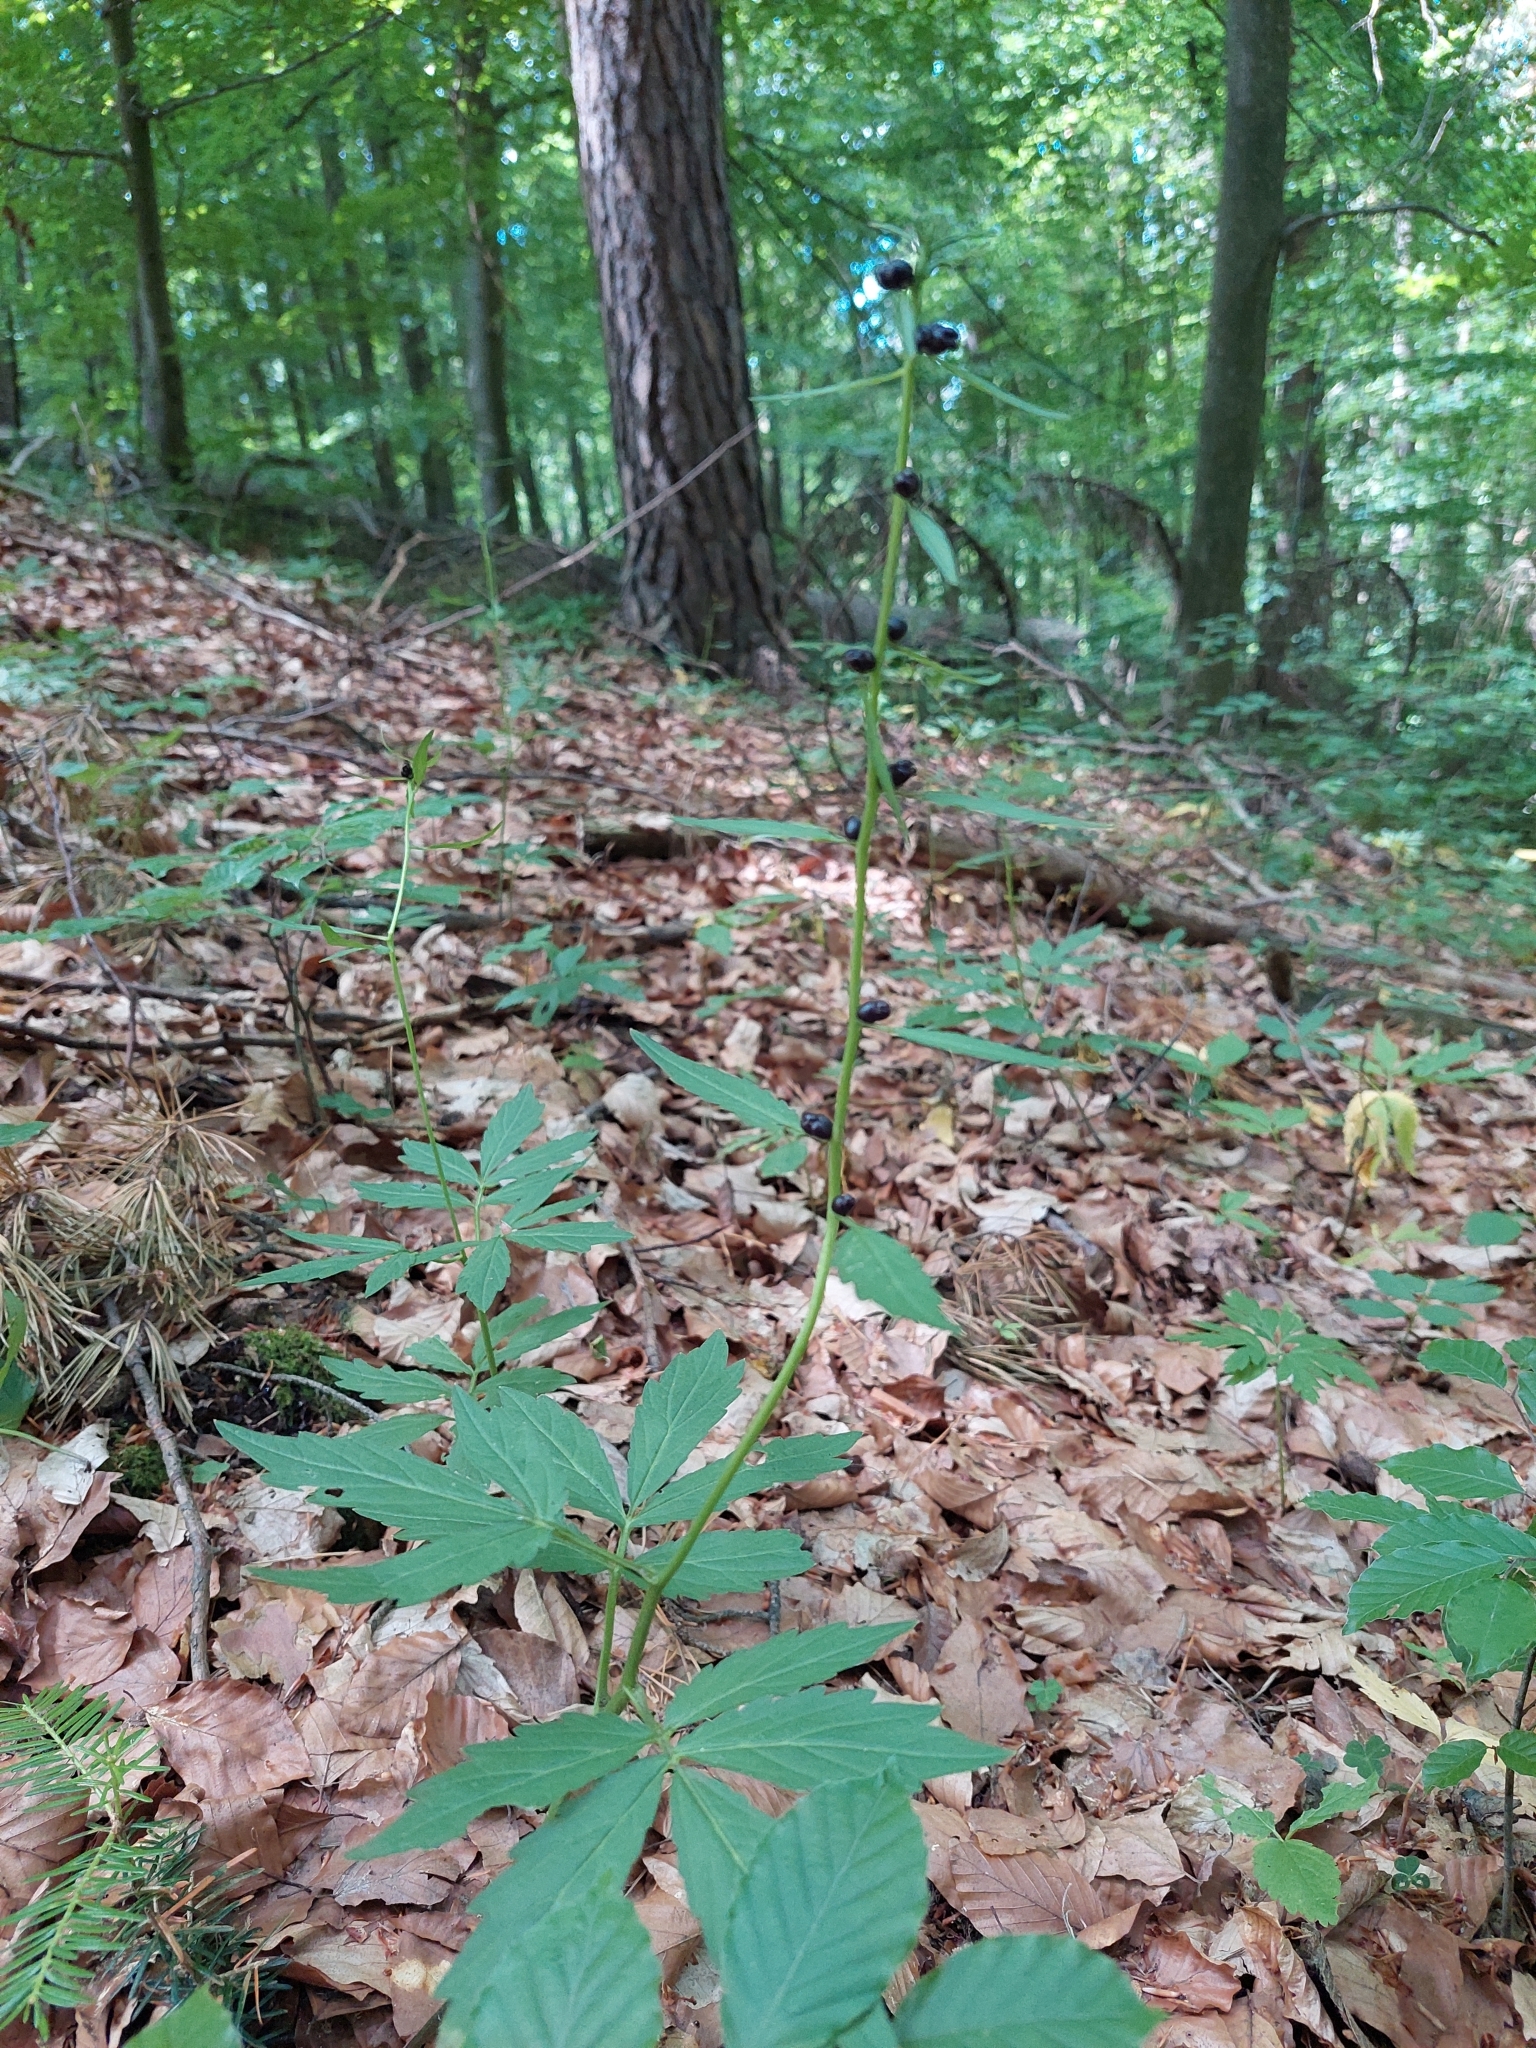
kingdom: Plantae
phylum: Tracheophyta
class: Magnoliopsida
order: Brassicales
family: Brassicaceae
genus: Cardamine
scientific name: Cardamine bulbifera
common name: Coralroot bittercress
